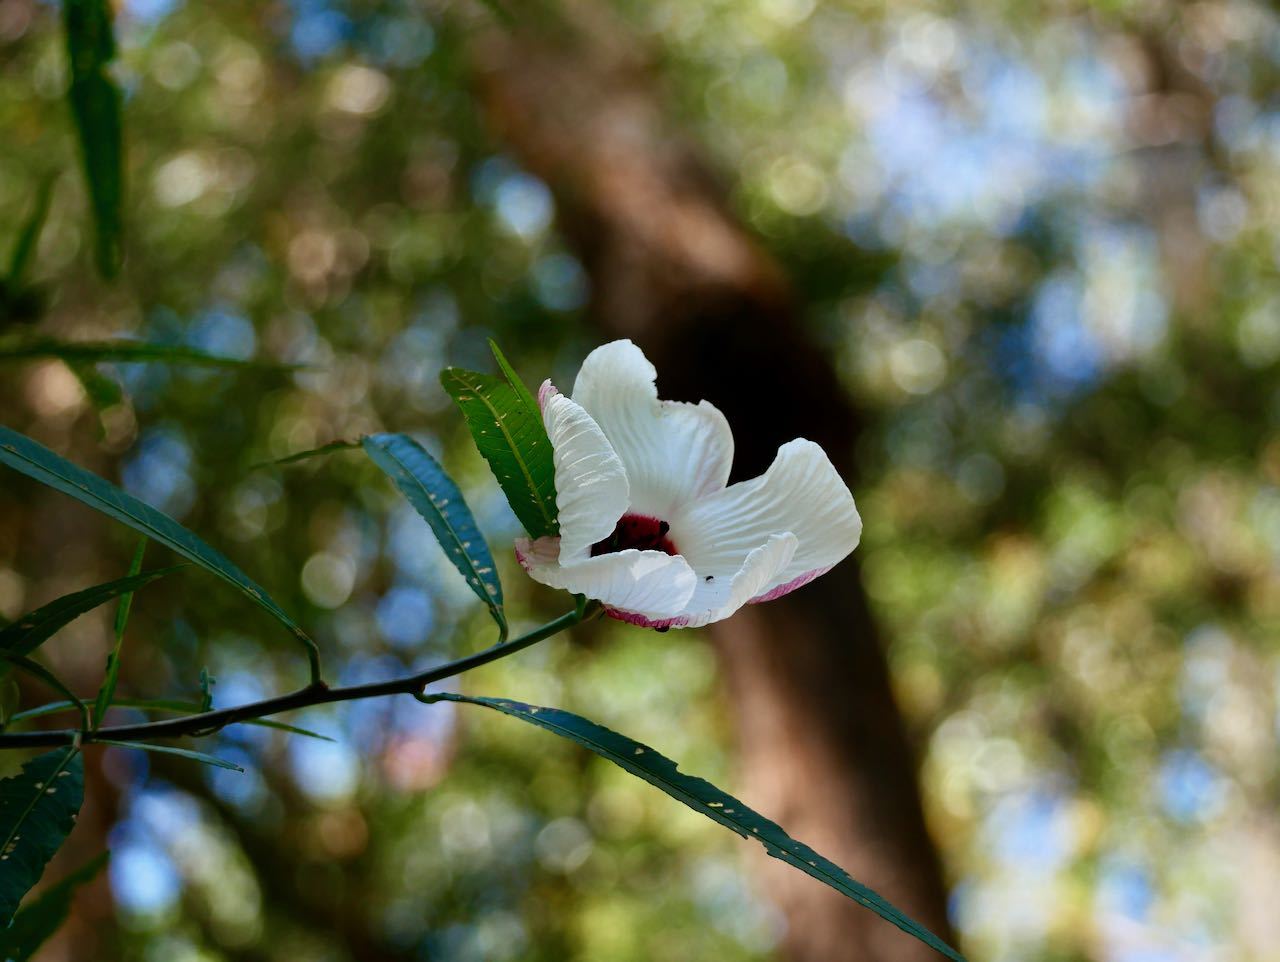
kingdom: Plantae
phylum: Tracheophyta
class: Magnoliopsida
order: Malvales
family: Malvaceae
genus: Hibiscus
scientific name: Hibiscus heterophyllus
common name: Queensland-sorrel
